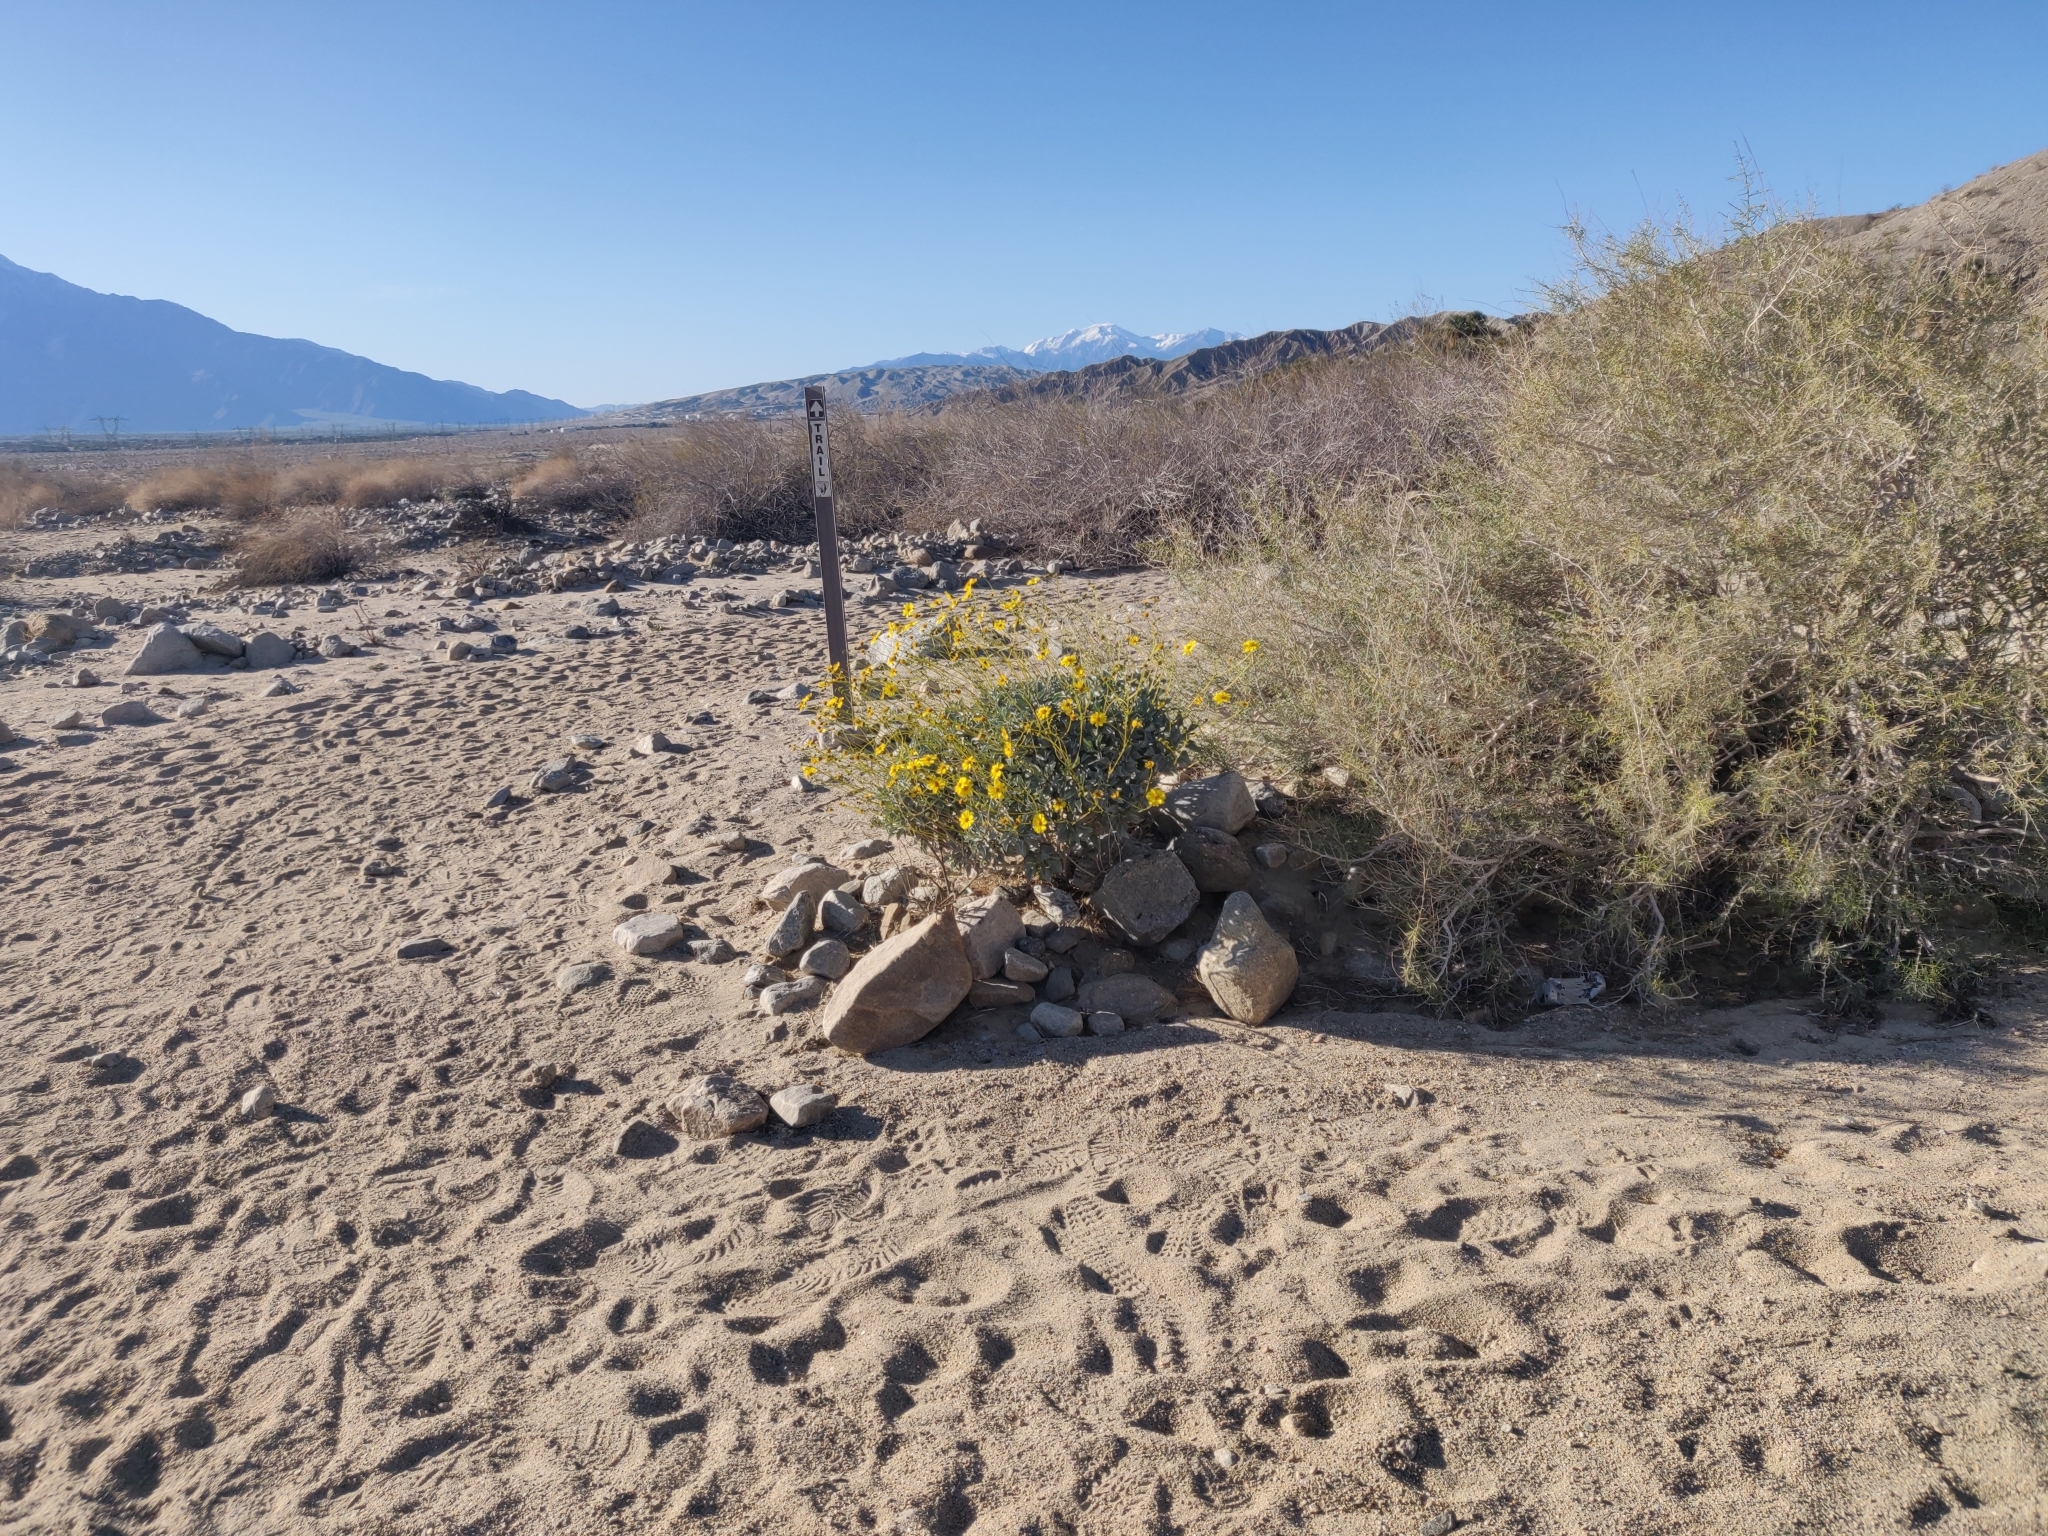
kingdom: Plantae
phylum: Tracheophyta
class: Magnoliopsida
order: Asterales
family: Asteraceae
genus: Encelia
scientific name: Encelia farinosa
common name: Brittlebush
